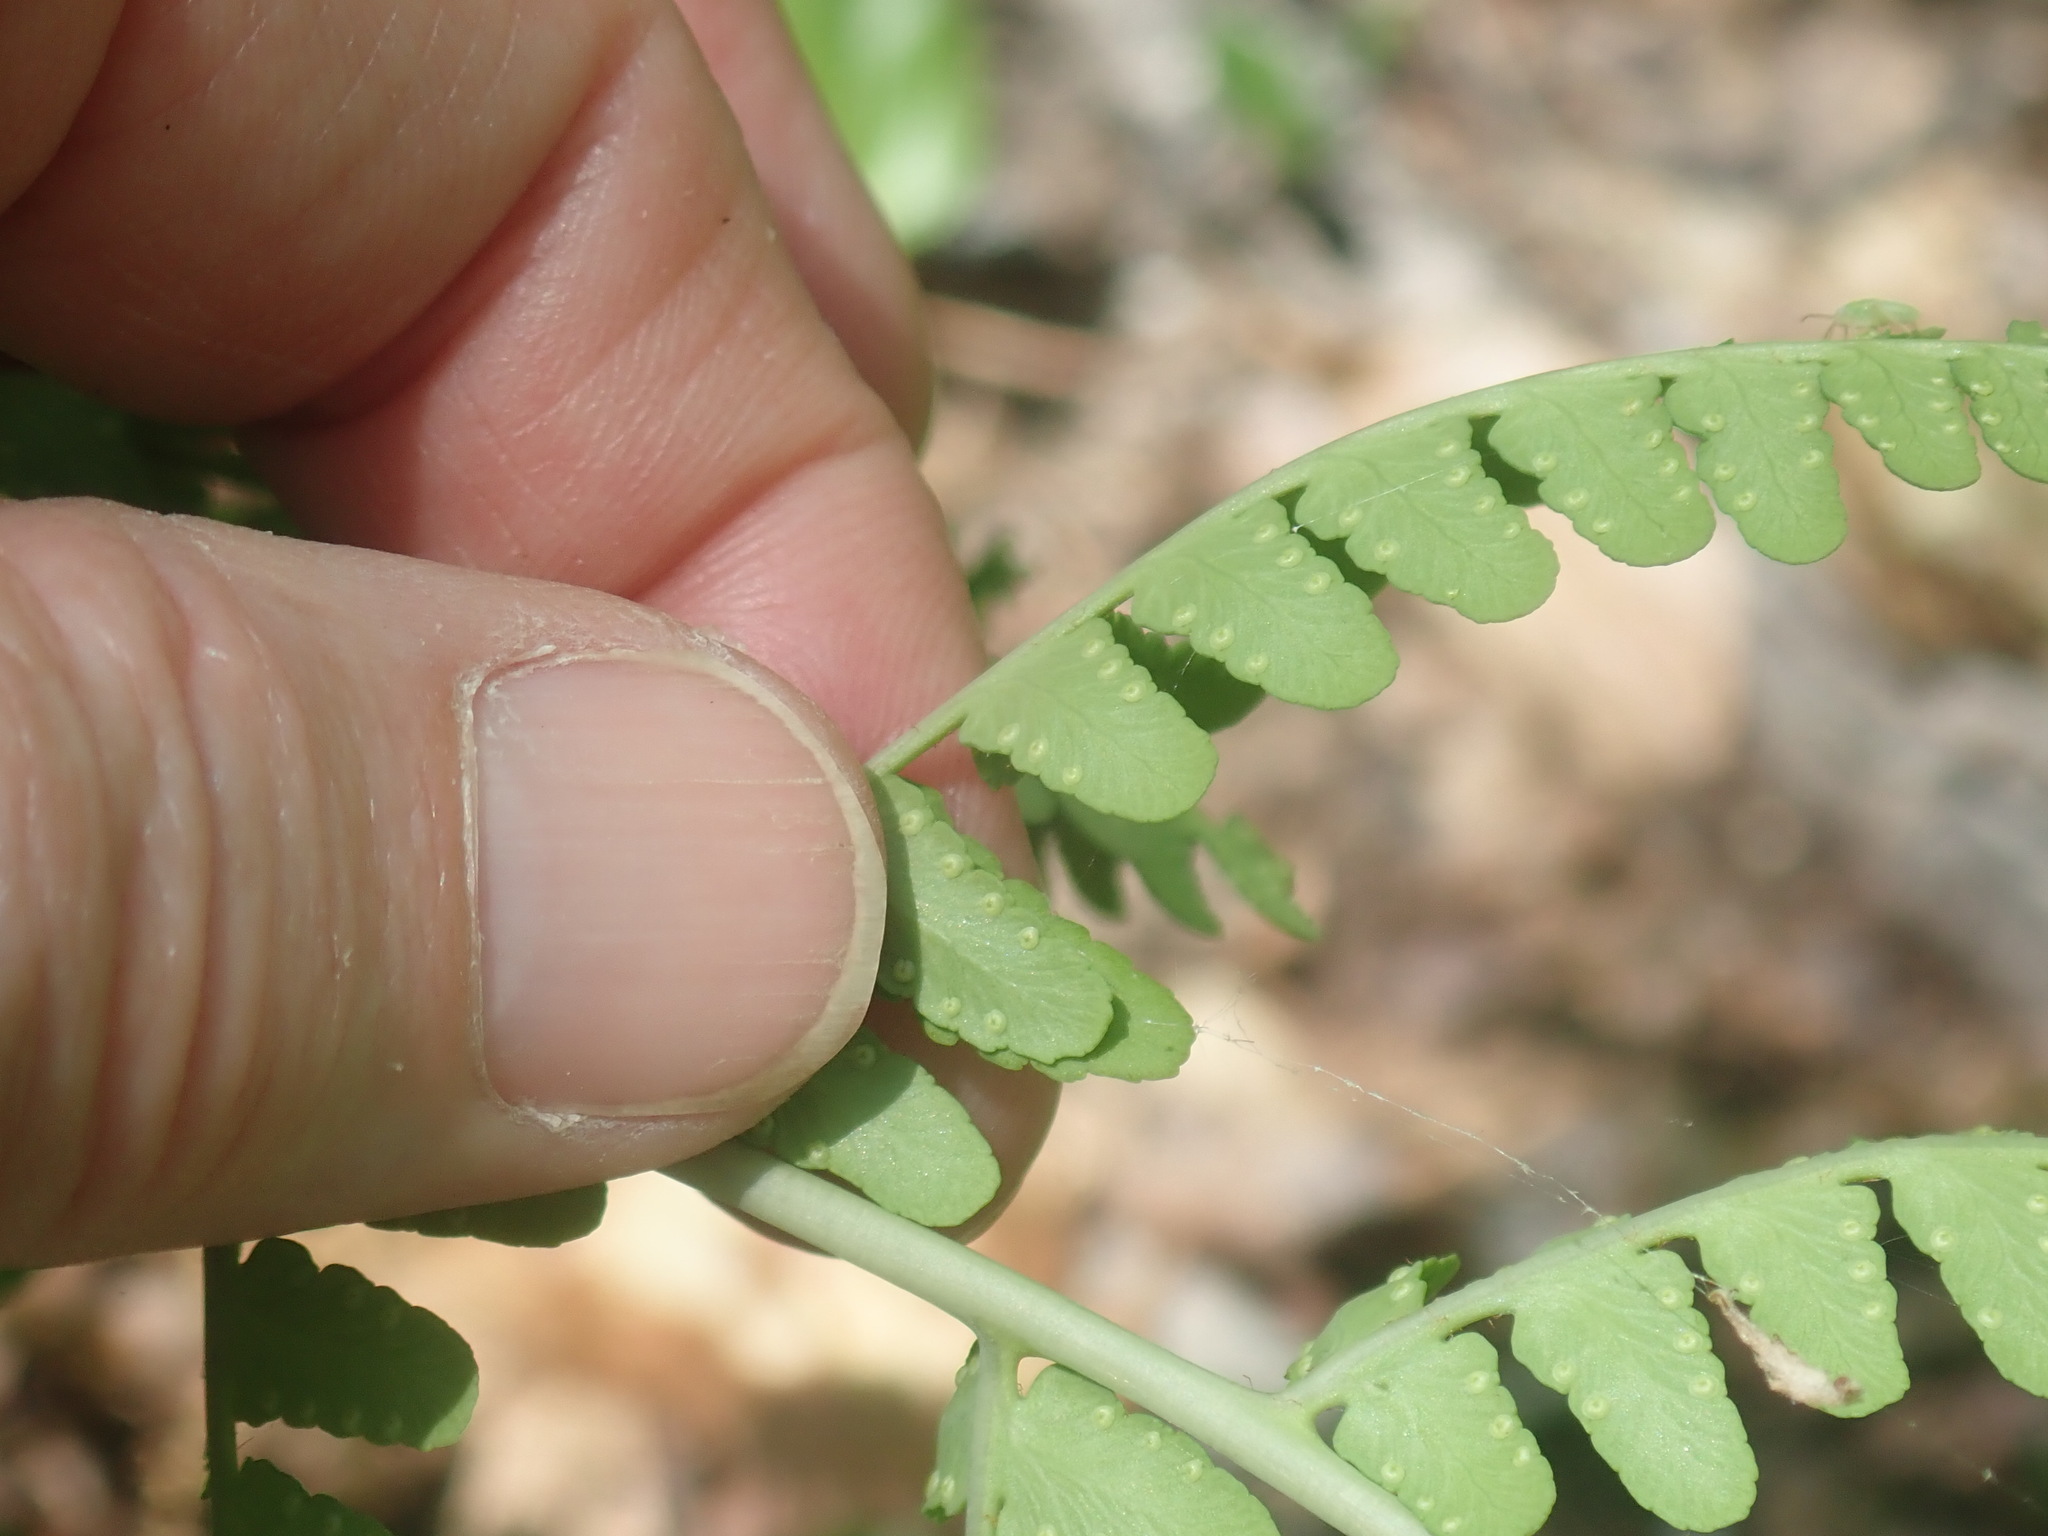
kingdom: Plantae
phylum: Tracheophyta
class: Polypodiopsida
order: Polypodiales
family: Dryopteridaceae
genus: Dryopteris
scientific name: Dryopteris marginalis
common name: Marginal wood fern
